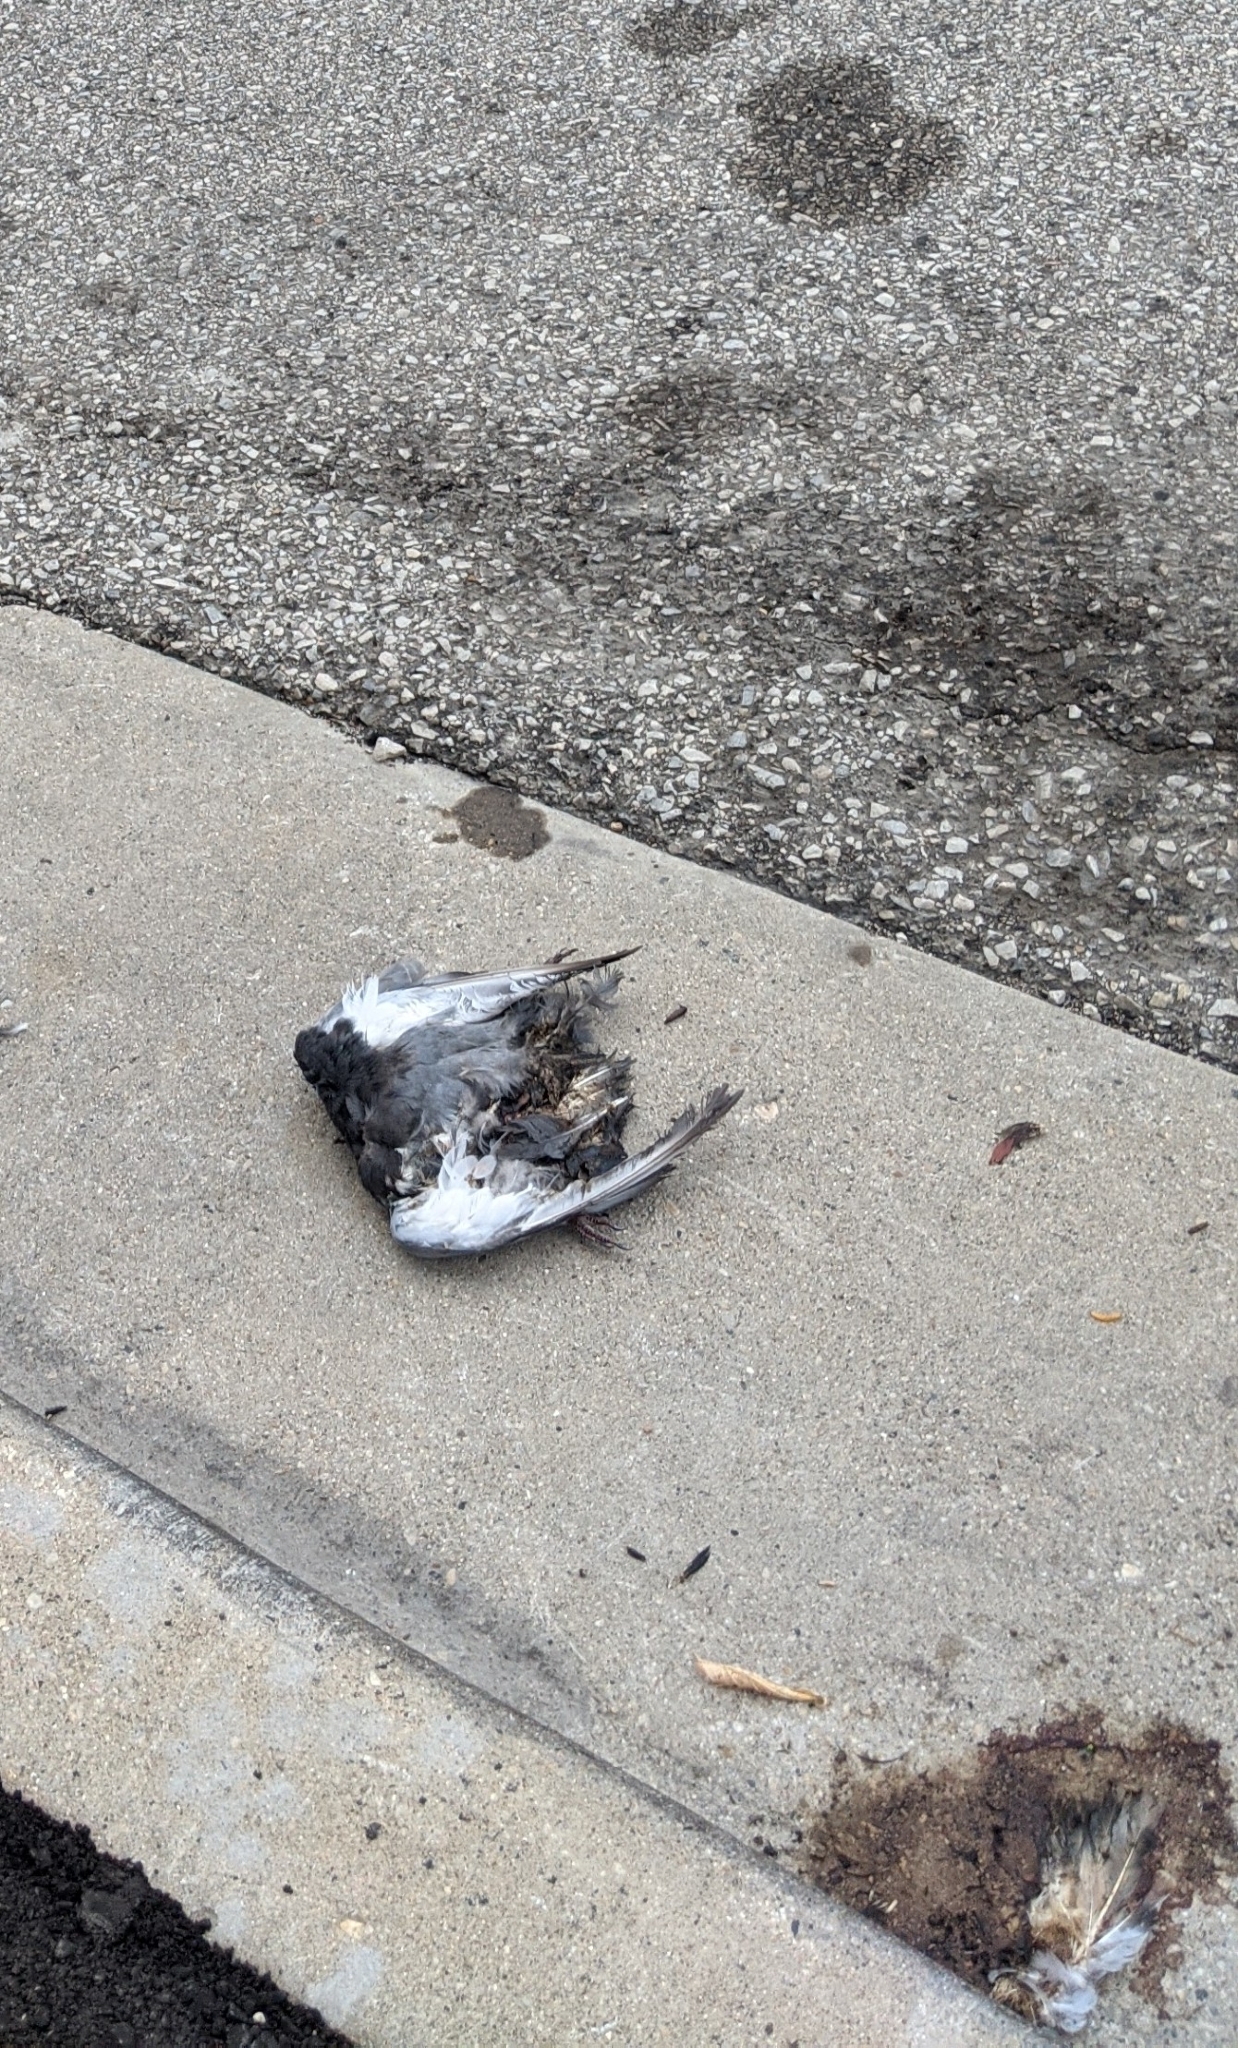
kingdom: Animalia
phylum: Chordata
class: Aves
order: Columbiformes
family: Columbidae
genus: Columba
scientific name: Columba livia
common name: Rock pigeon
